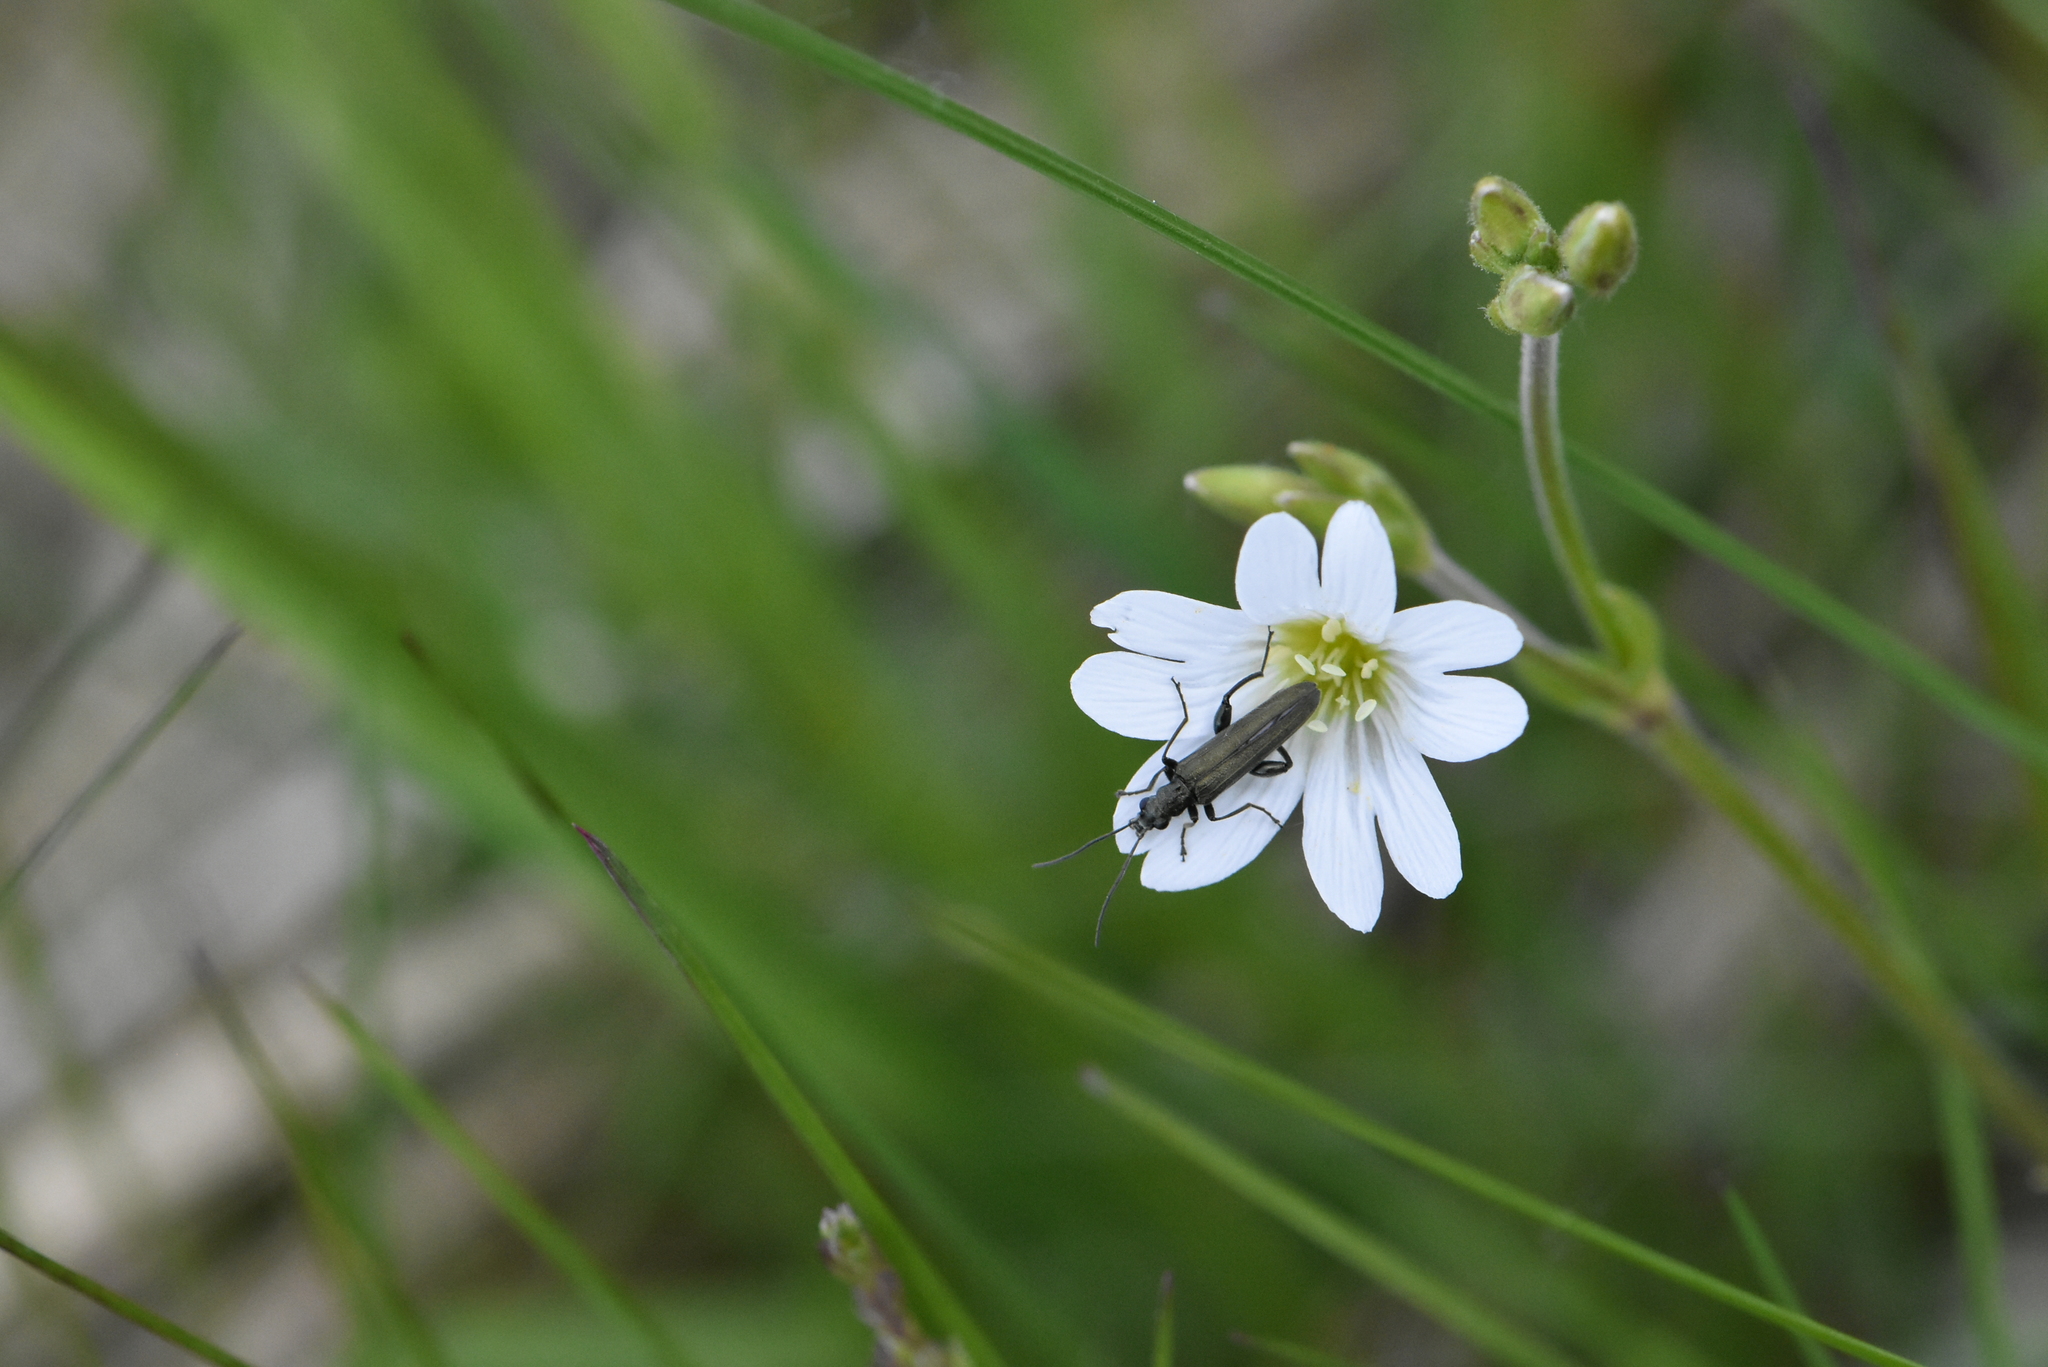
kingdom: Plantae
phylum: Tracheophyta
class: Magnoliopsida
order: Caryophyllales
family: Caryophyllaceae
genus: Cerastium
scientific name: Cerastium arvense
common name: Field mouse-ear
